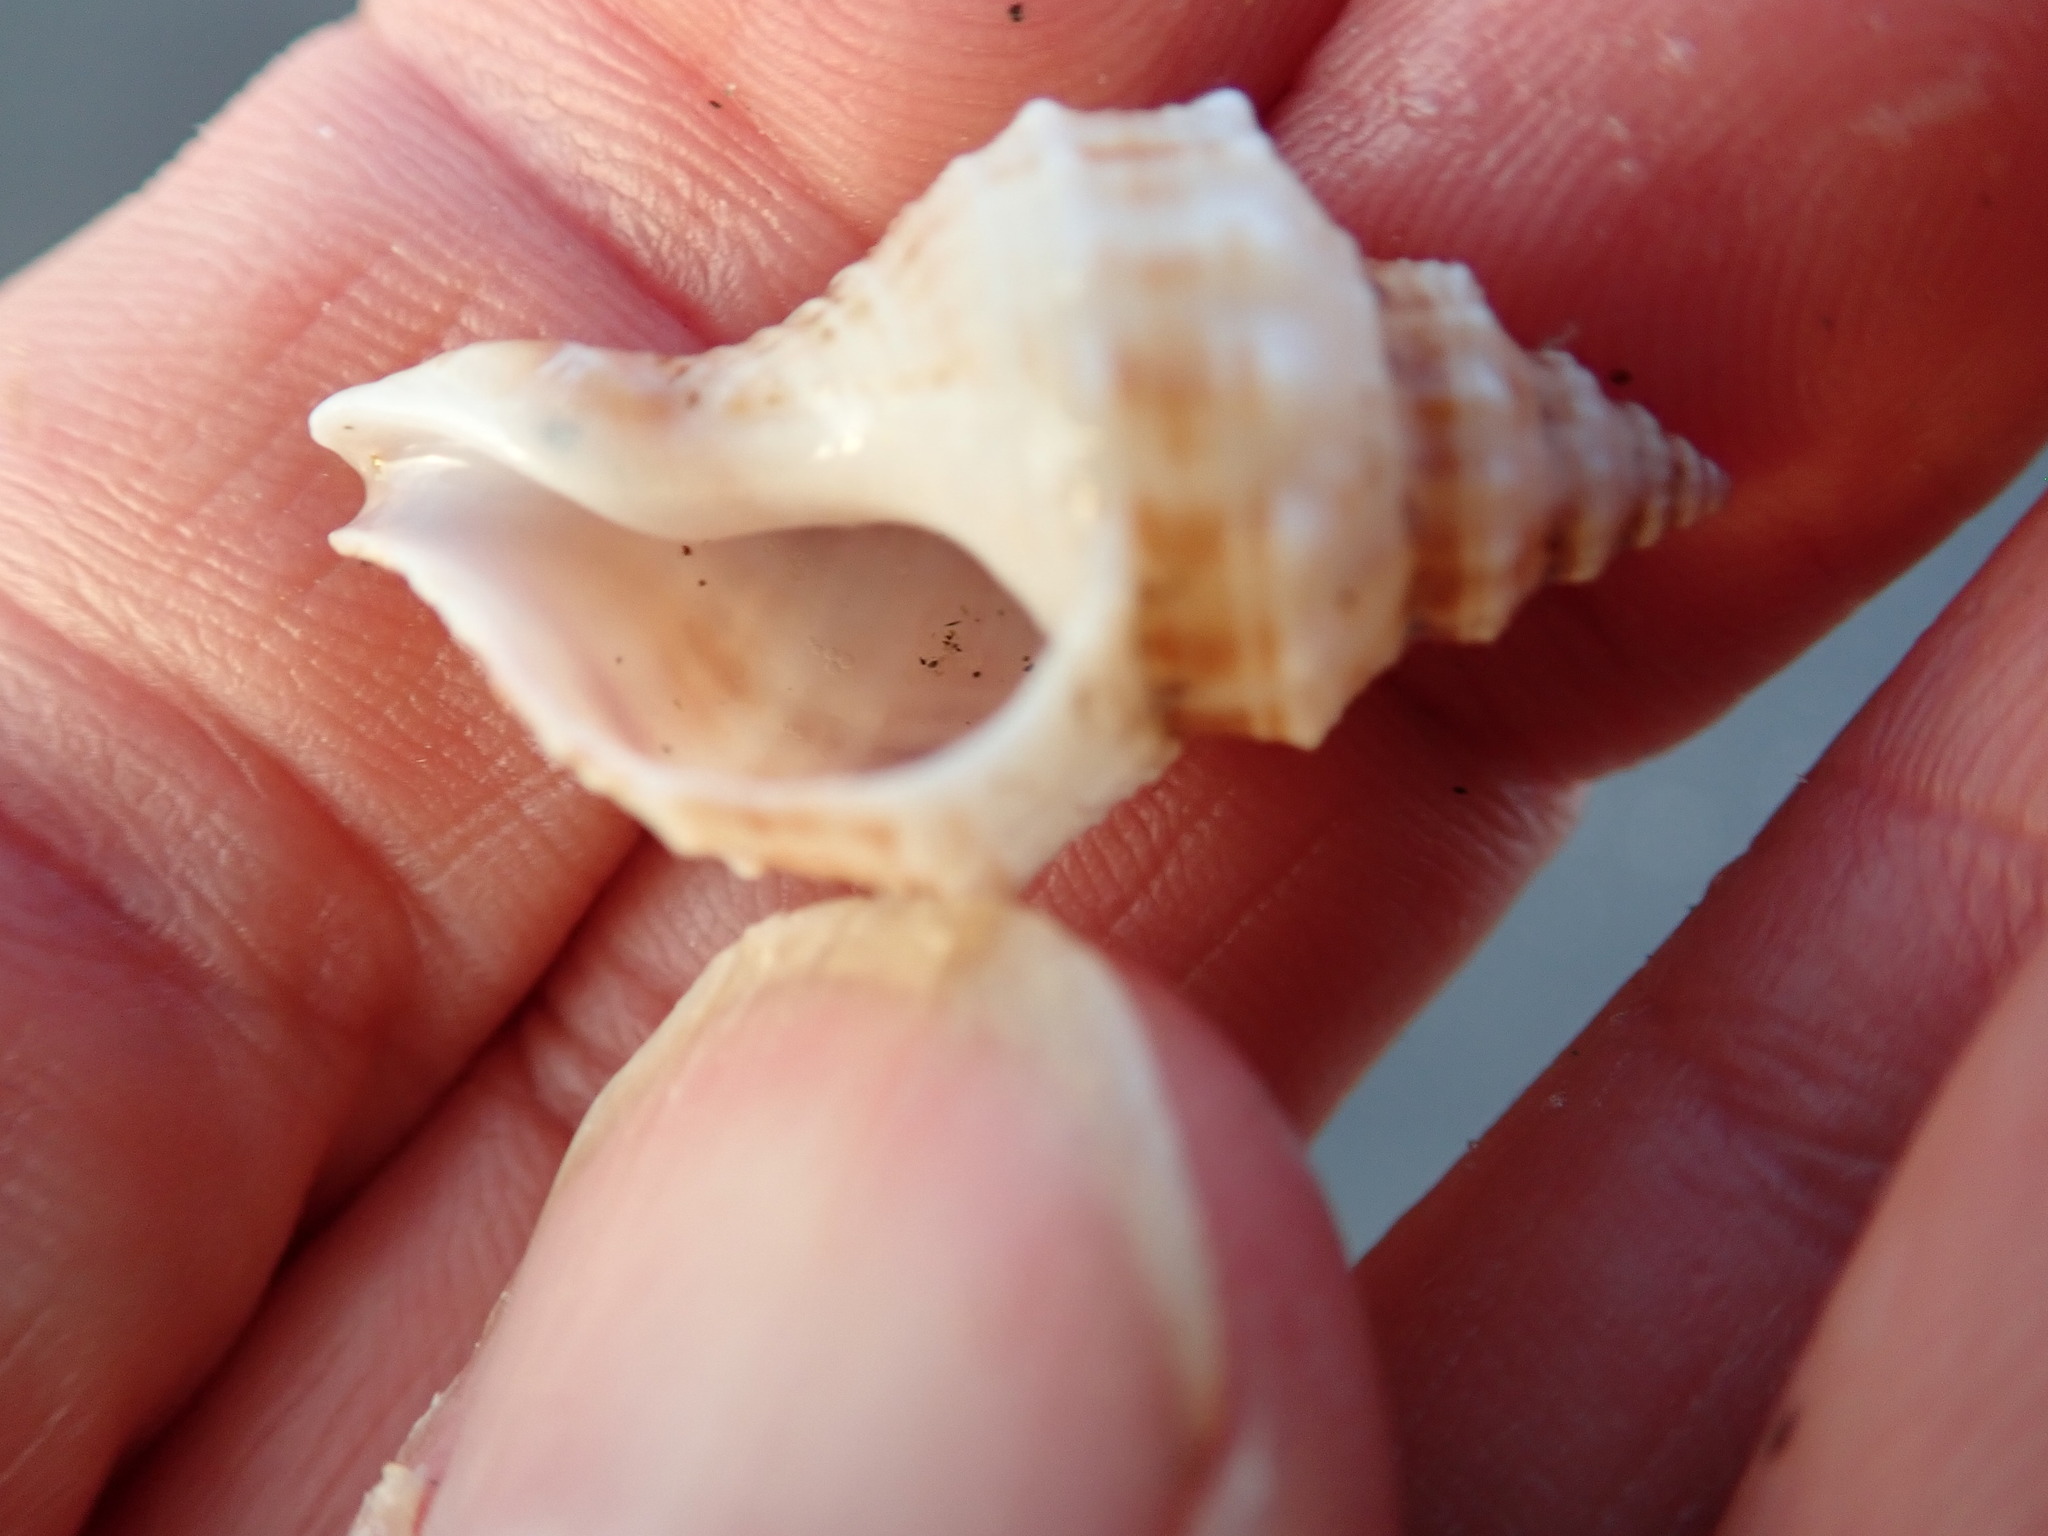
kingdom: Animalia
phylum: Mollusca
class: Gastropoda
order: Neogastropoda
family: Prosiphonidae
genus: Austrofusus
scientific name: Austrofusus glans
